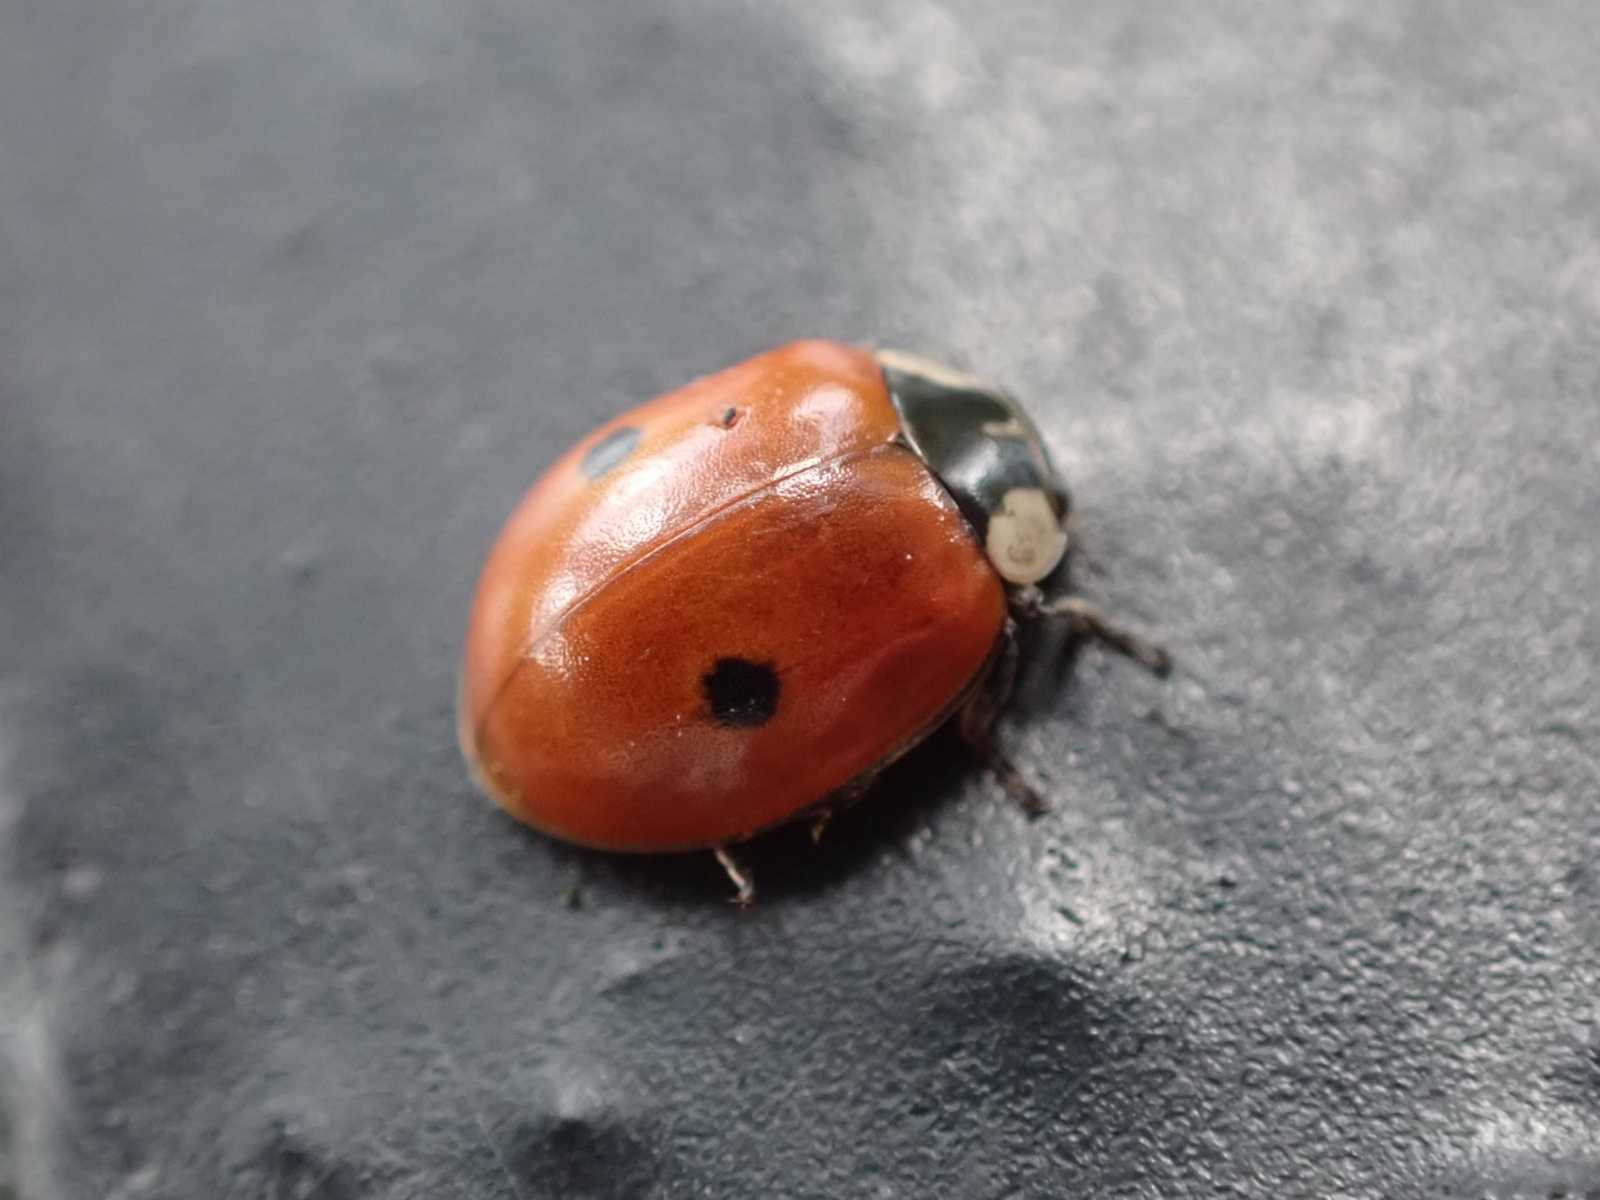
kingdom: Animalia
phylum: Arthropoda
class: Insecta
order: Coleoptera
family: Coccinellidae
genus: Adalia
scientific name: Adalia bipunctata
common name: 2-spot ladybird
